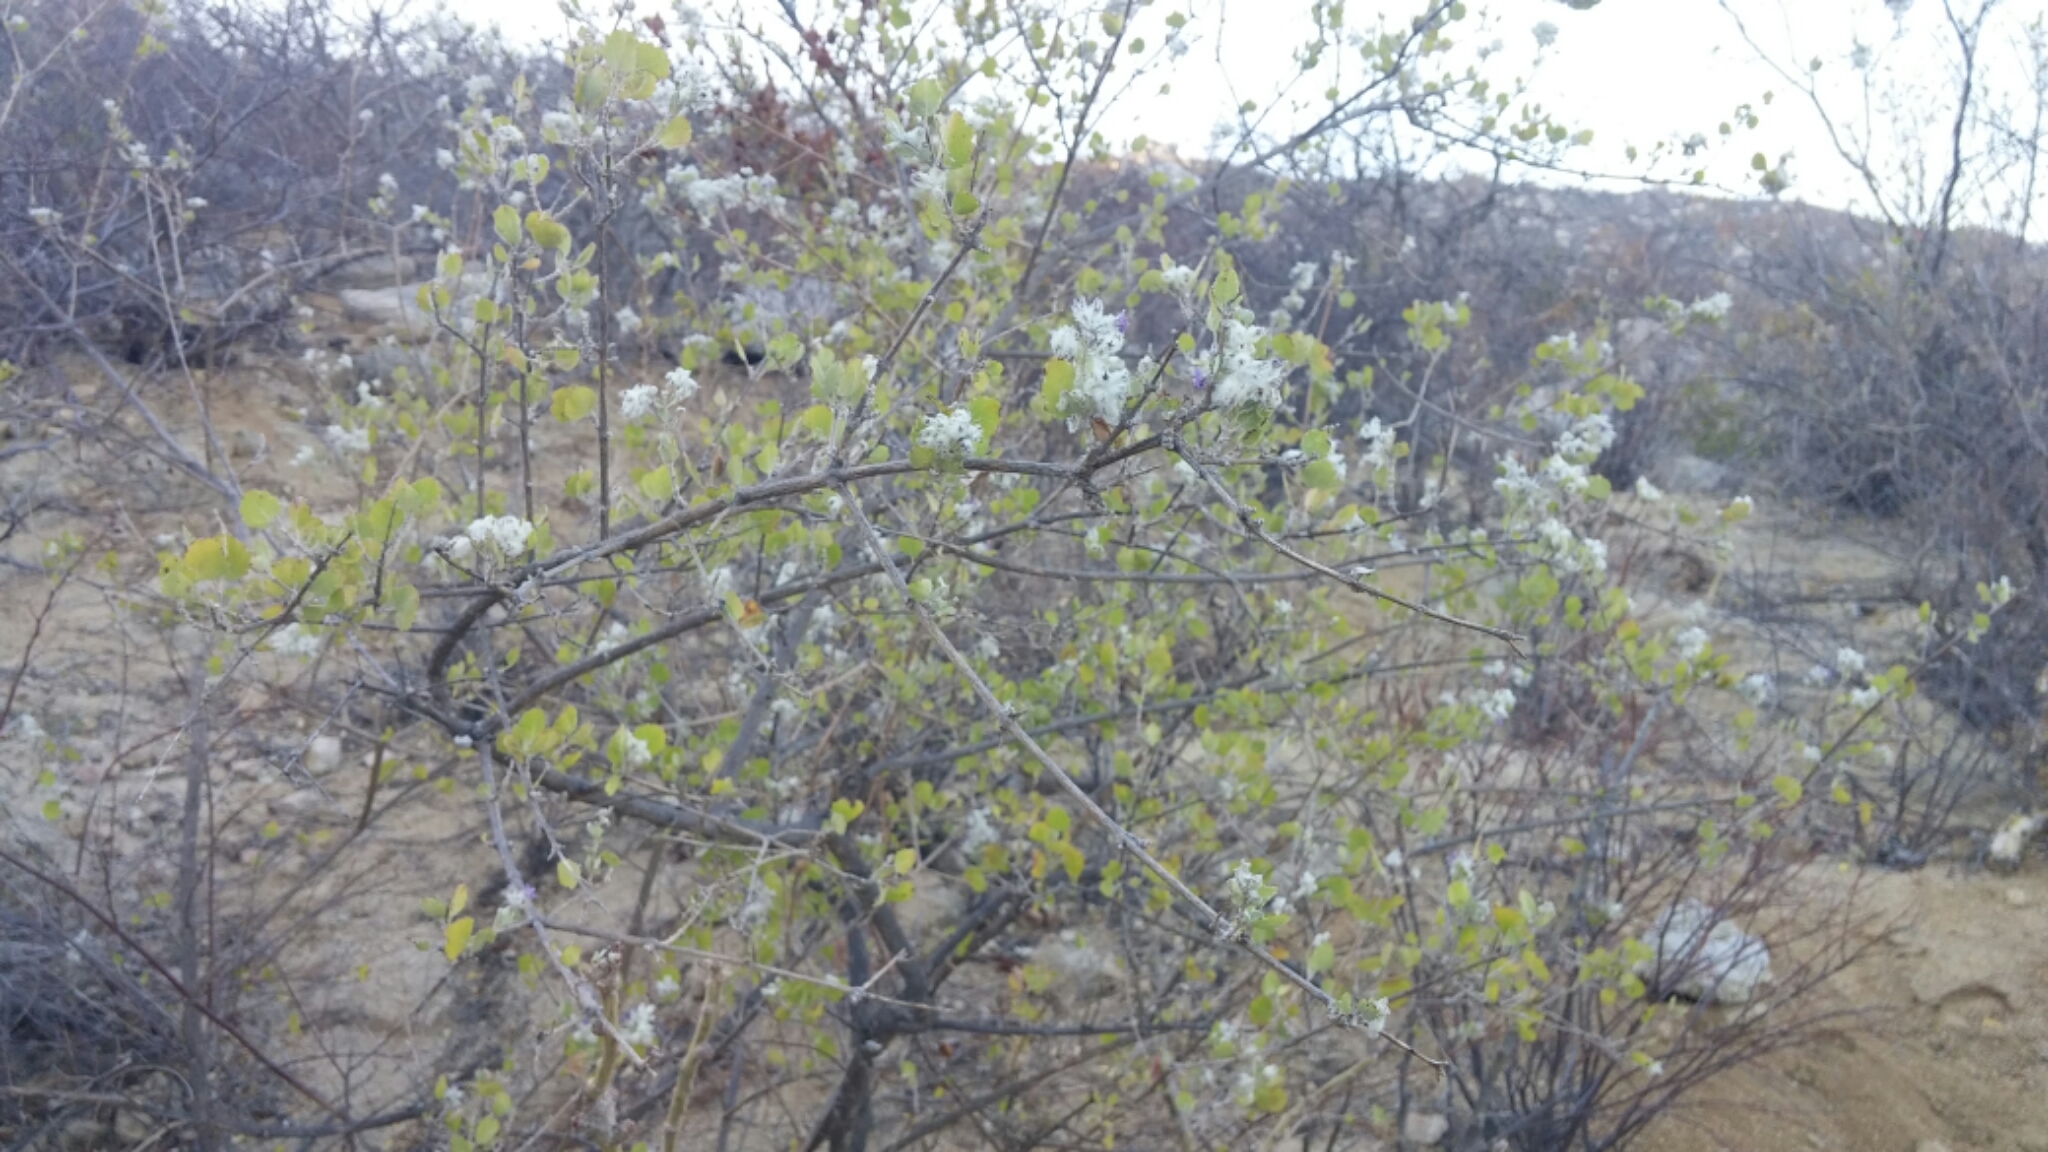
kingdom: Plantae
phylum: Tracheophyta
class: Magnoliopsida
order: Lamiales
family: Lamiaceae
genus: Condea
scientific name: Condea laniflora
